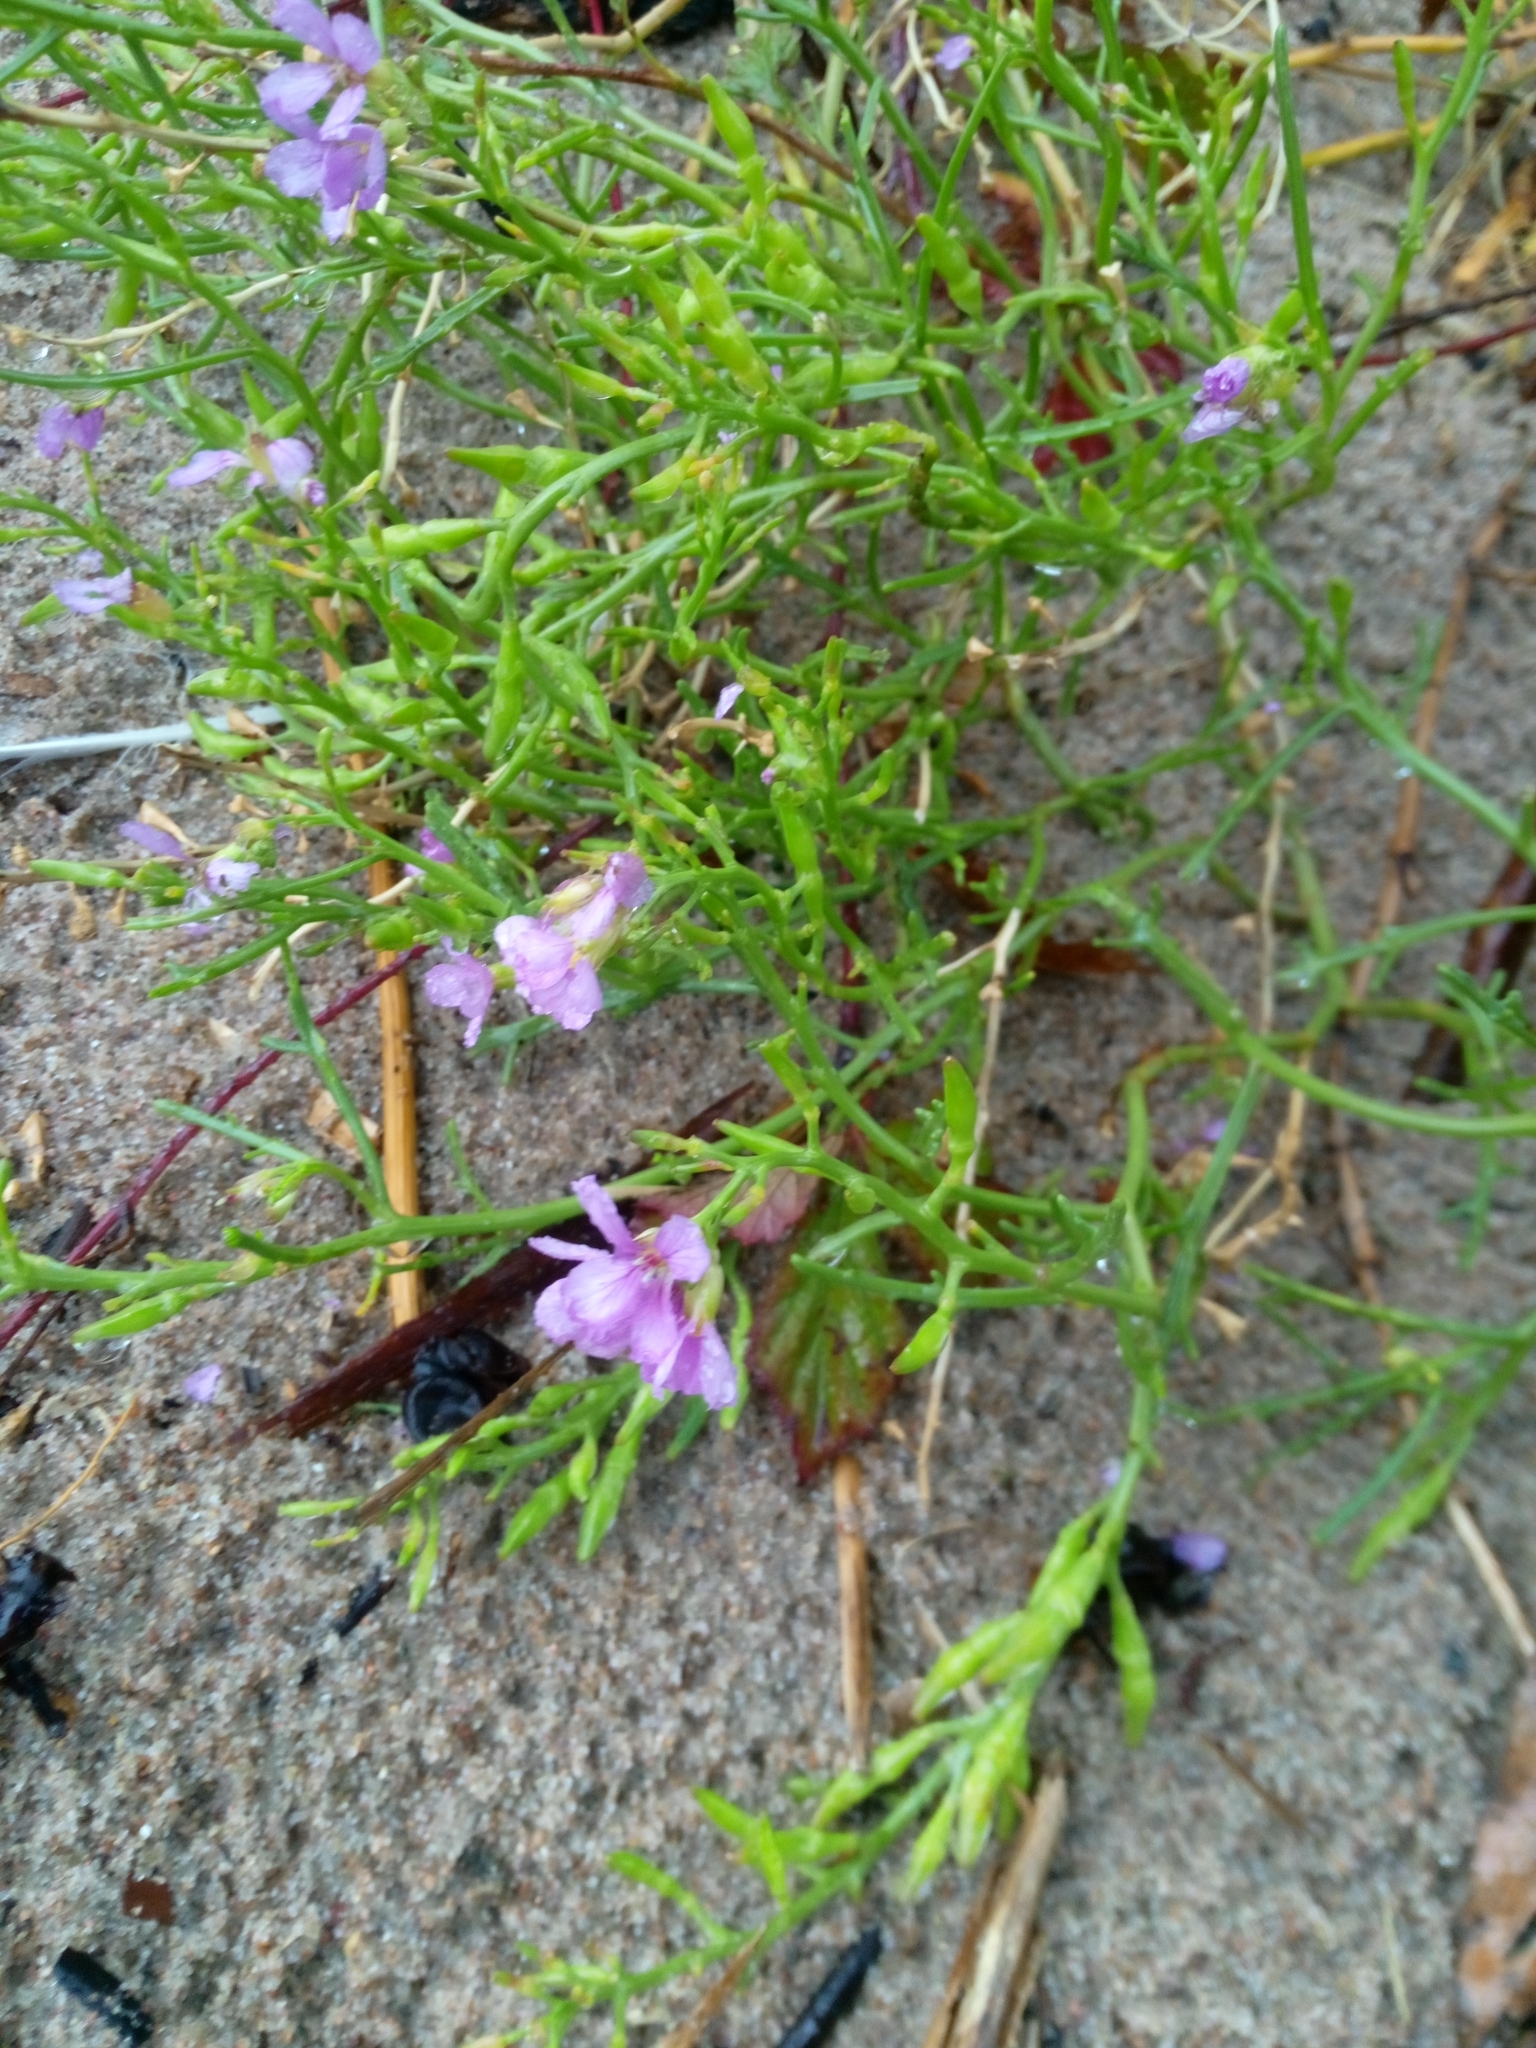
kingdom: Plantae
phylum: Tracheophyta
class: Magnoliopsida
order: Brassicales
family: Brassicaceae
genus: Cakile
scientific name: Cakile maritima
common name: Sea rocket
